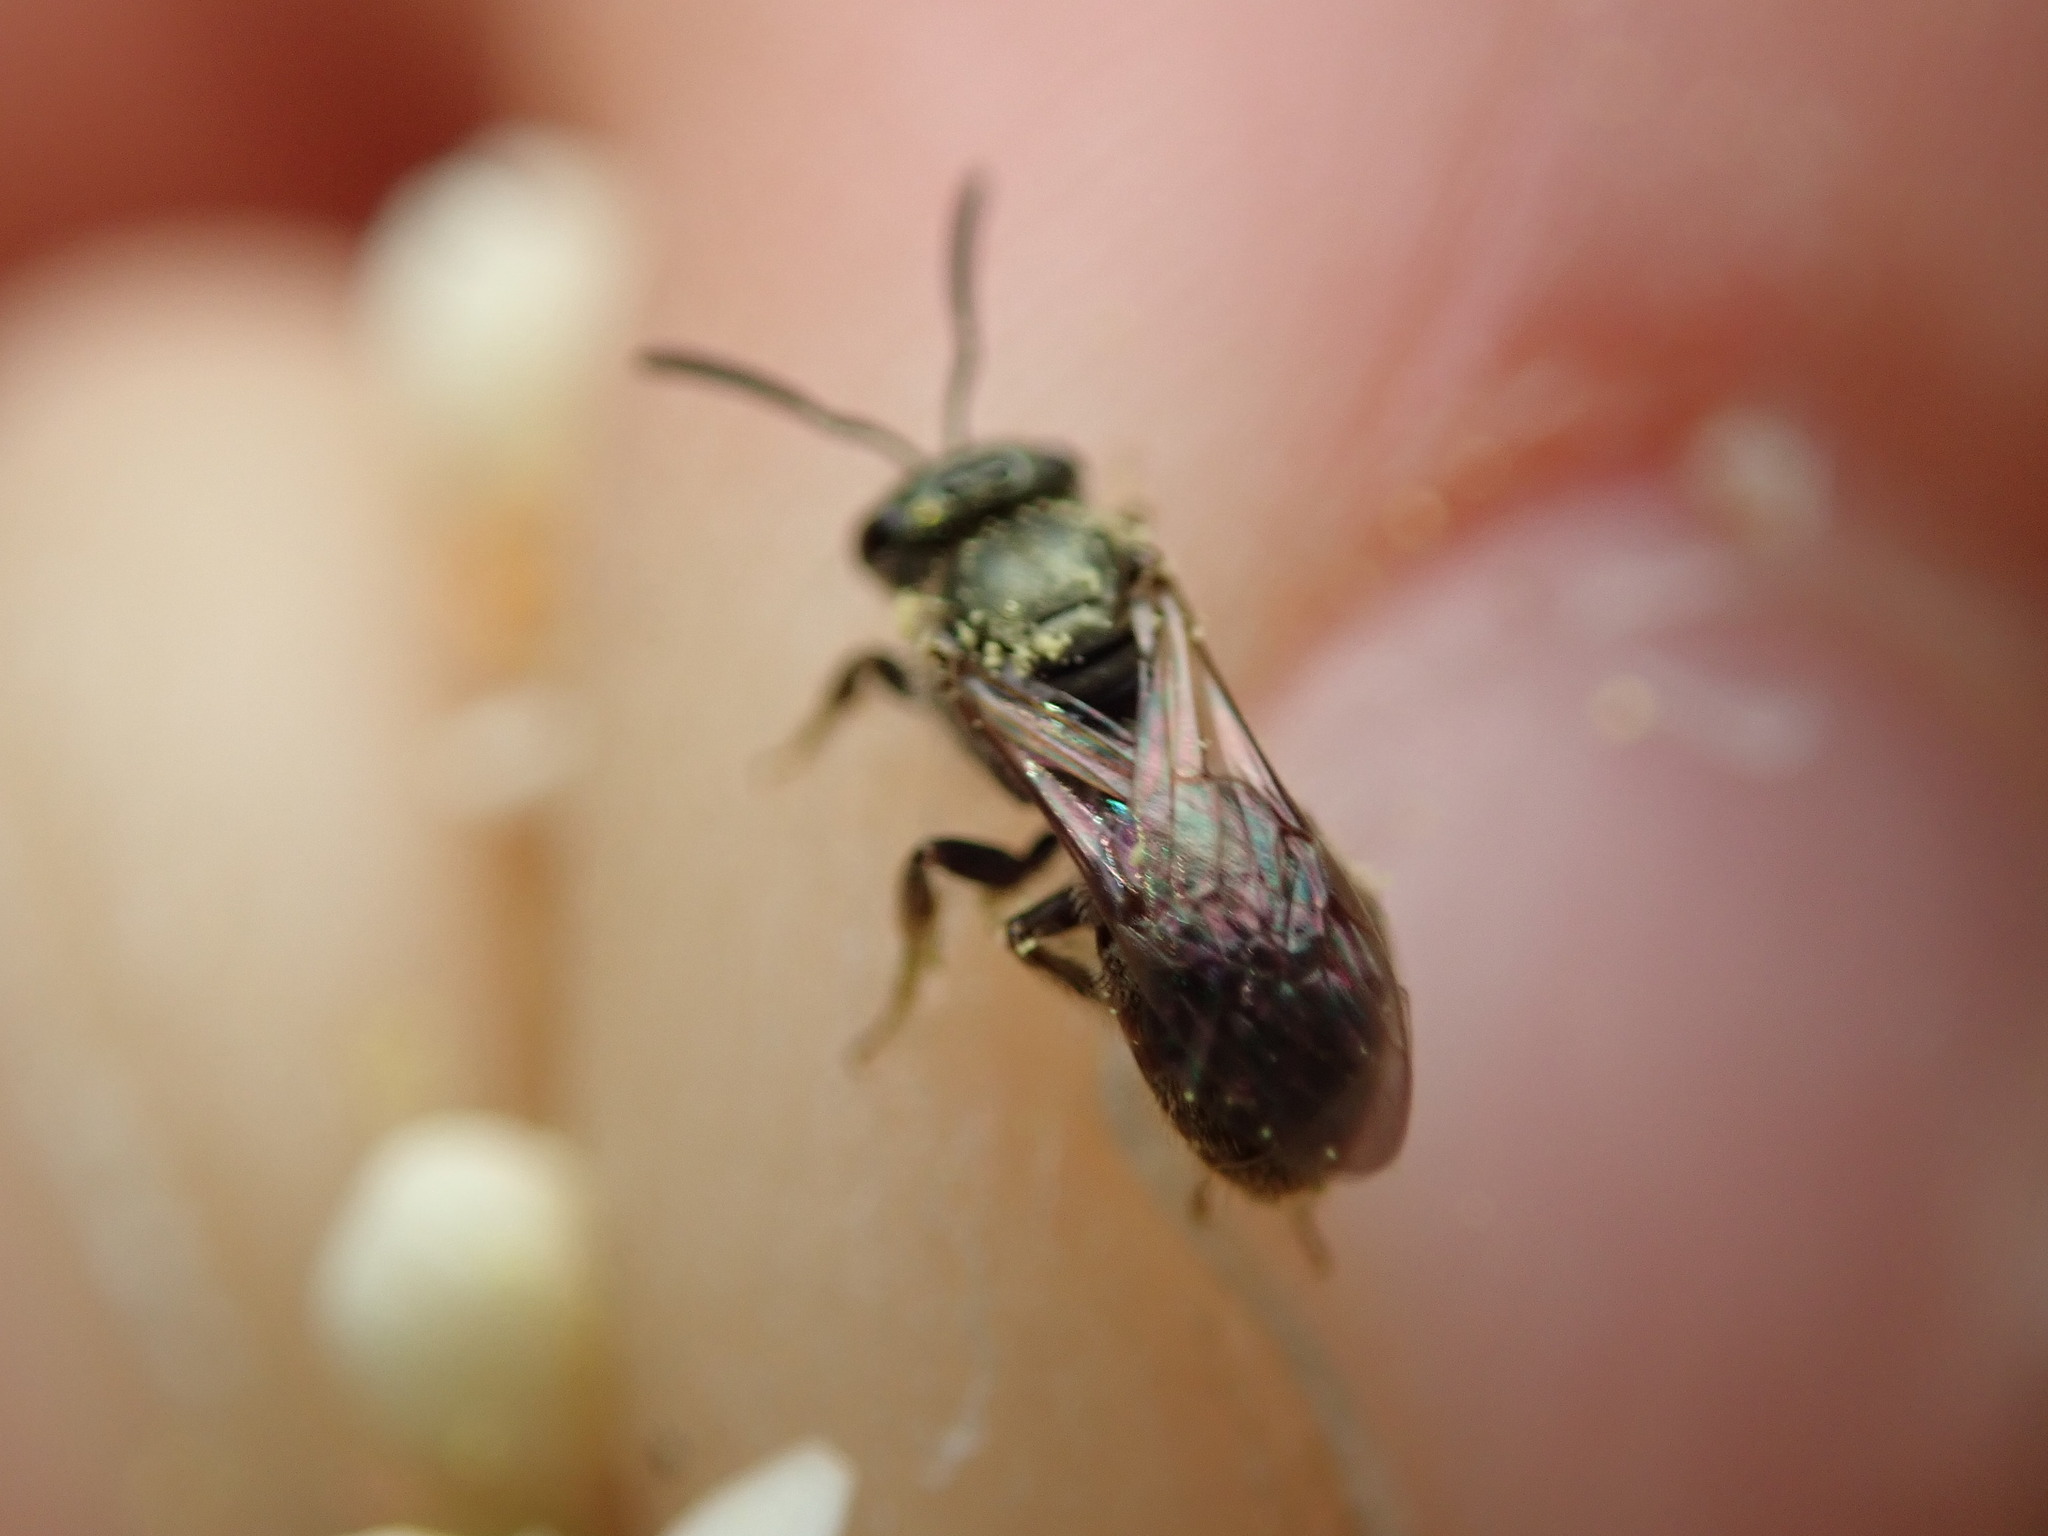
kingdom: Animalia
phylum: Arthropoda
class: Insecta
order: Hymenoptera
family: Halictidae
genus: Dialictus
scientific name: Dialictus
